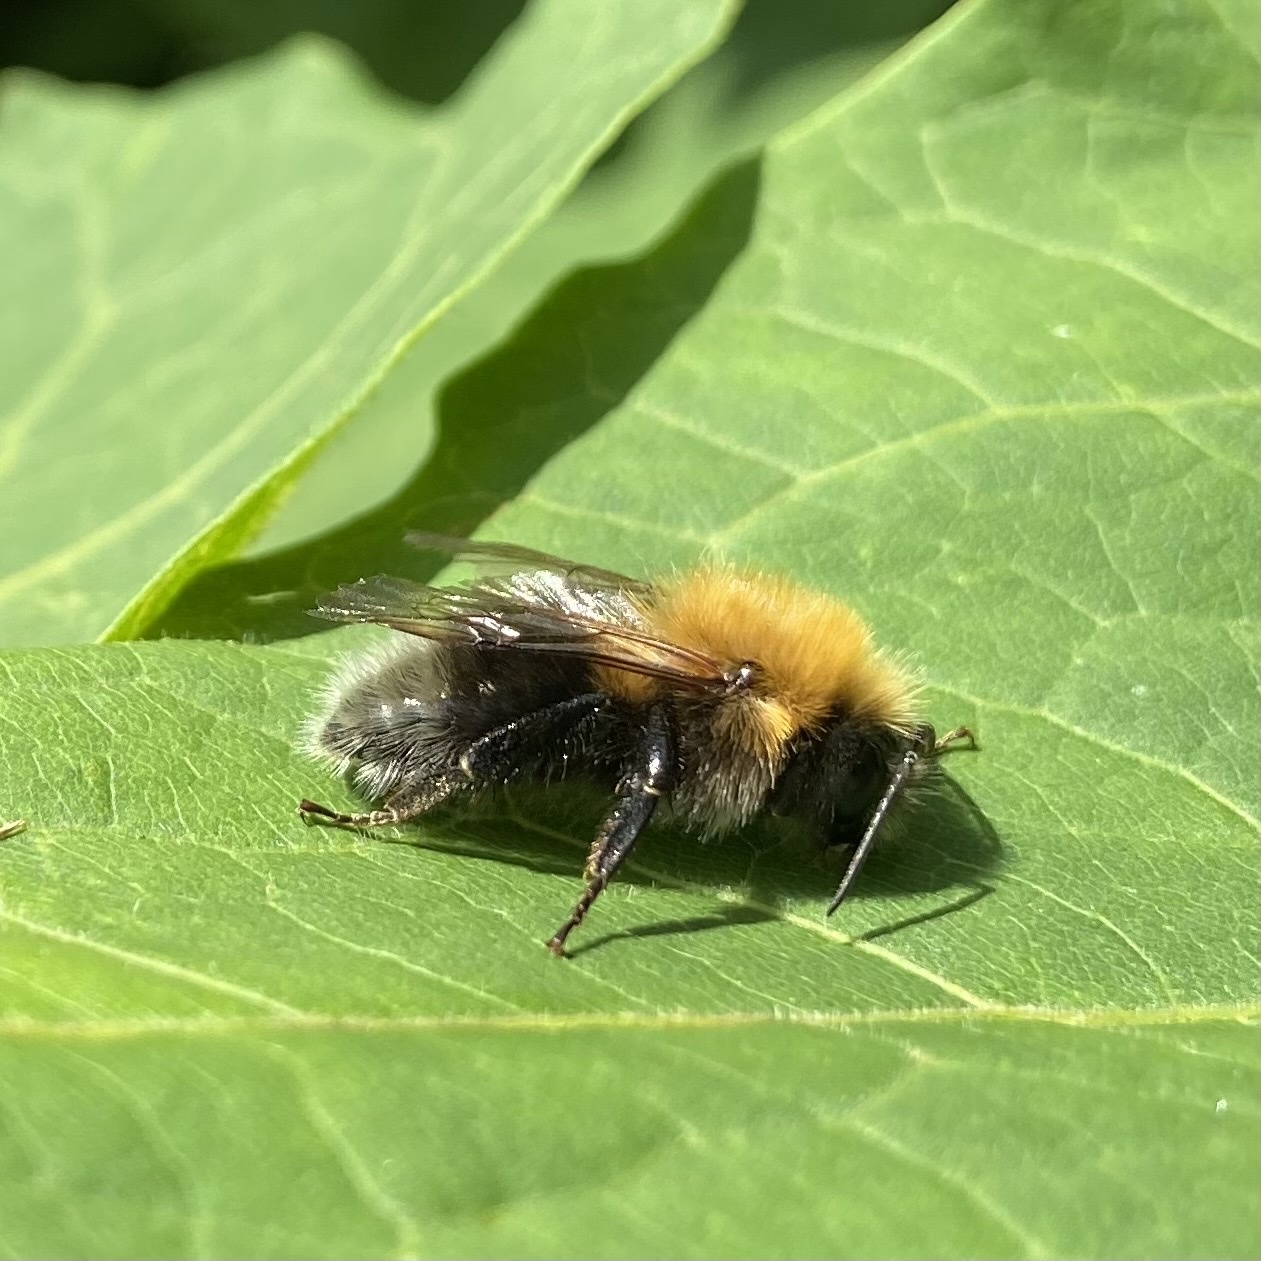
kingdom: Animalia
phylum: Arthropoda
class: Insecta
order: Hymenoptera
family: Apidae
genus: Bombus
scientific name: Bombus hypnorum
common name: New garden bumblebee
